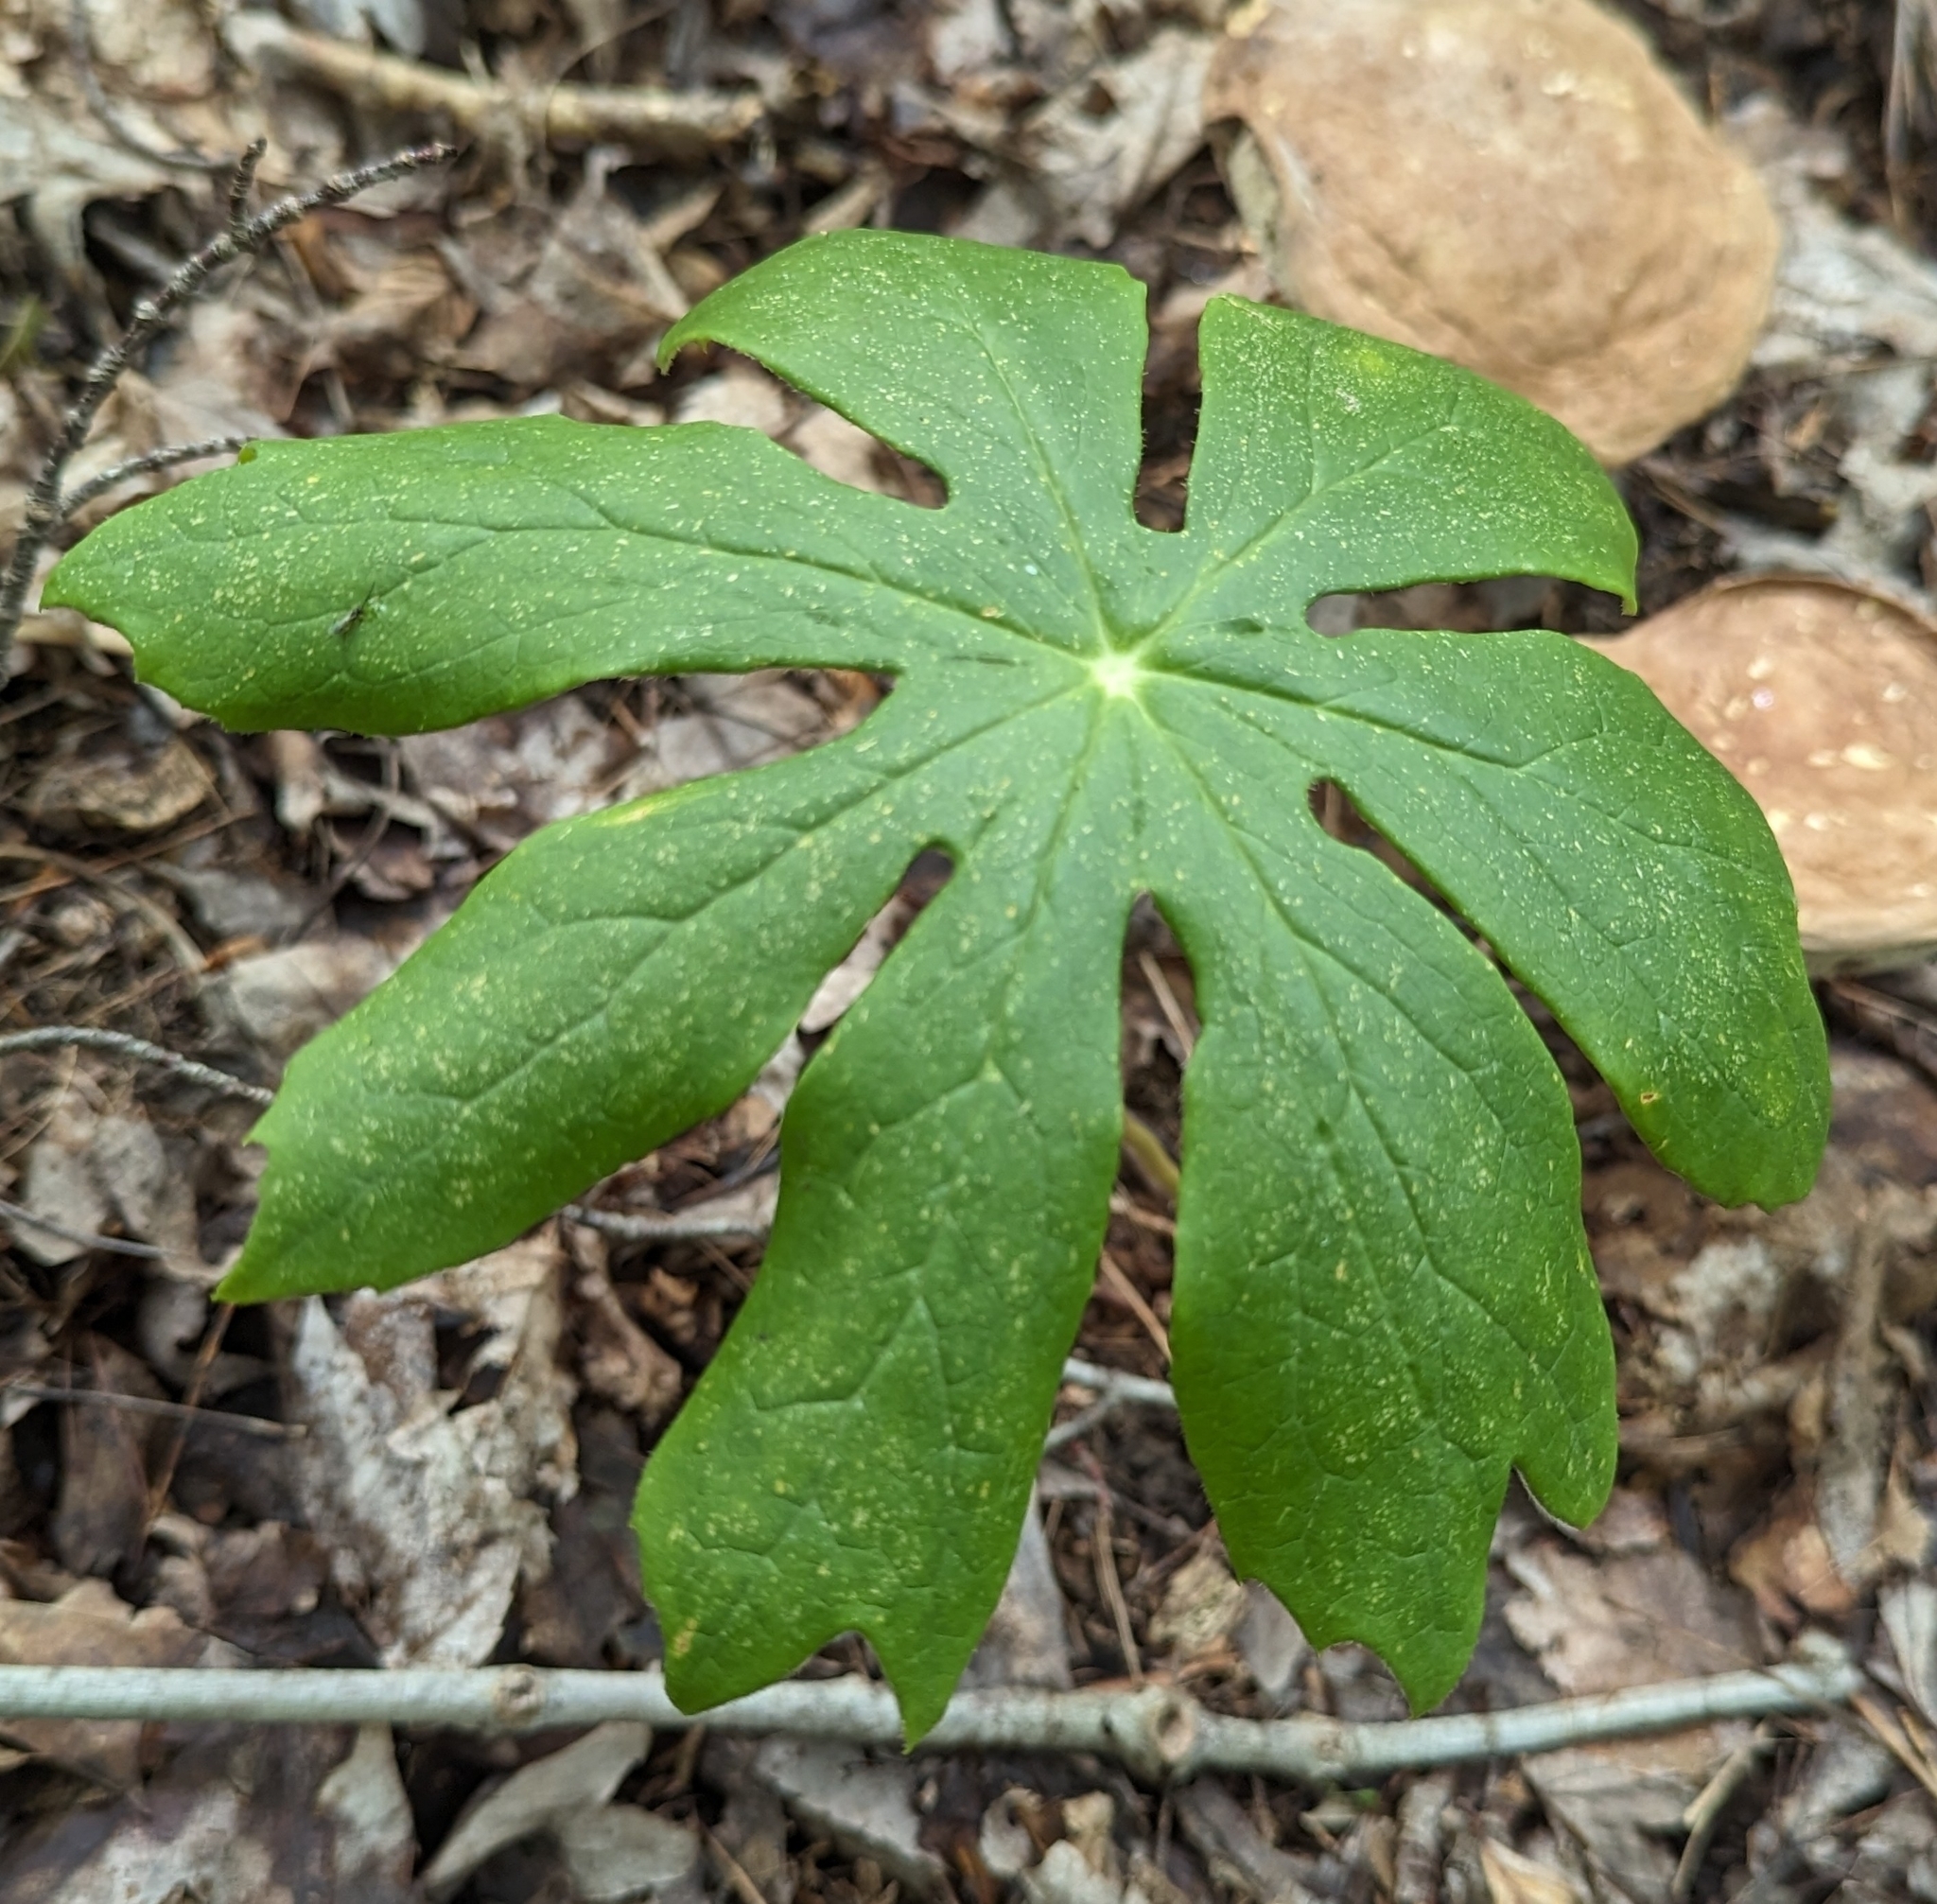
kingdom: Plantae
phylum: Tracheophyta
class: Magnoliopsida
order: Ranunculales
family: Berberidaceae
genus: Podophyllum
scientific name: Podophyllum peltatum
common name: Wild mandrake
